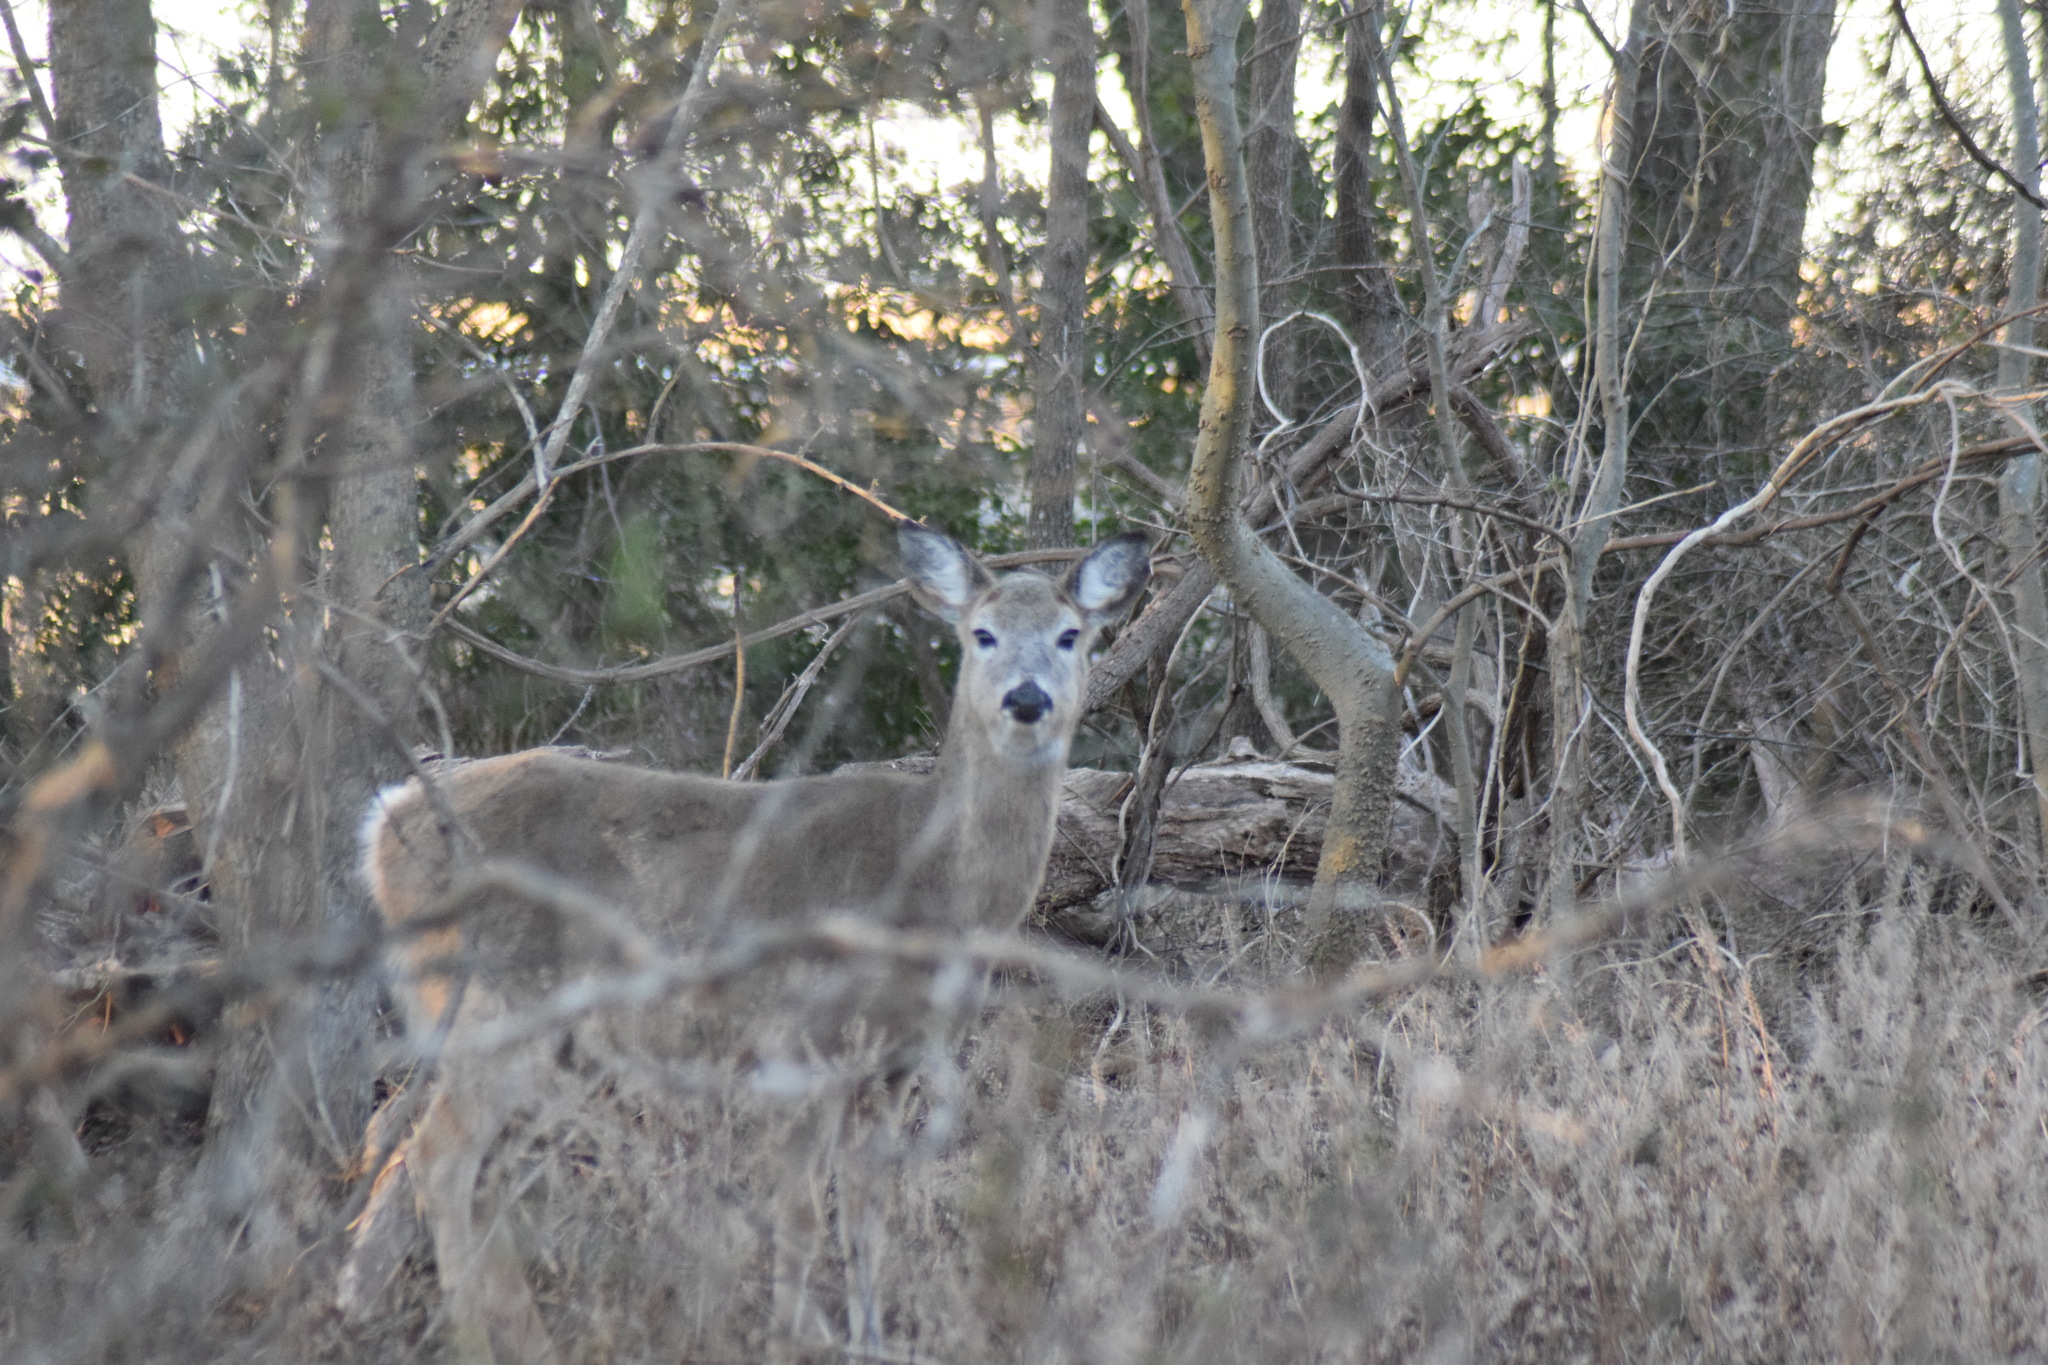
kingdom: Animalia
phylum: Chordata
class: Mammalia
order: Artiodactyla
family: Cervidae
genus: Odocoileus
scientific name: Odocoileus virginianus
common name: White-tailed deer
